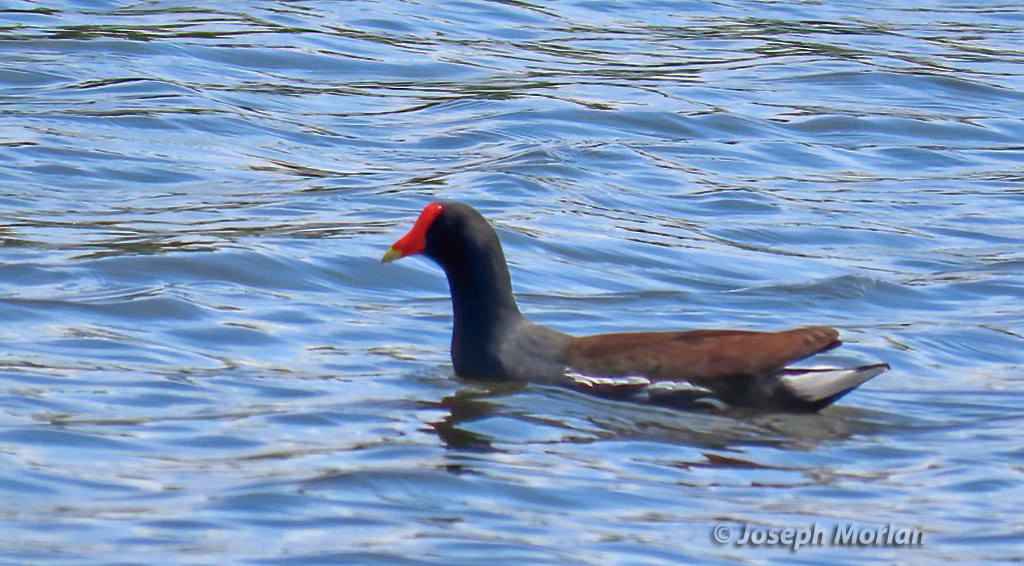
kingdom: Animalia
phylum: Chordata
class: Aves
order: Gruiformes
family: Rallidae
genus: Gallinula
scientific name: Gallinula chloropus
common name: Common moorhen
